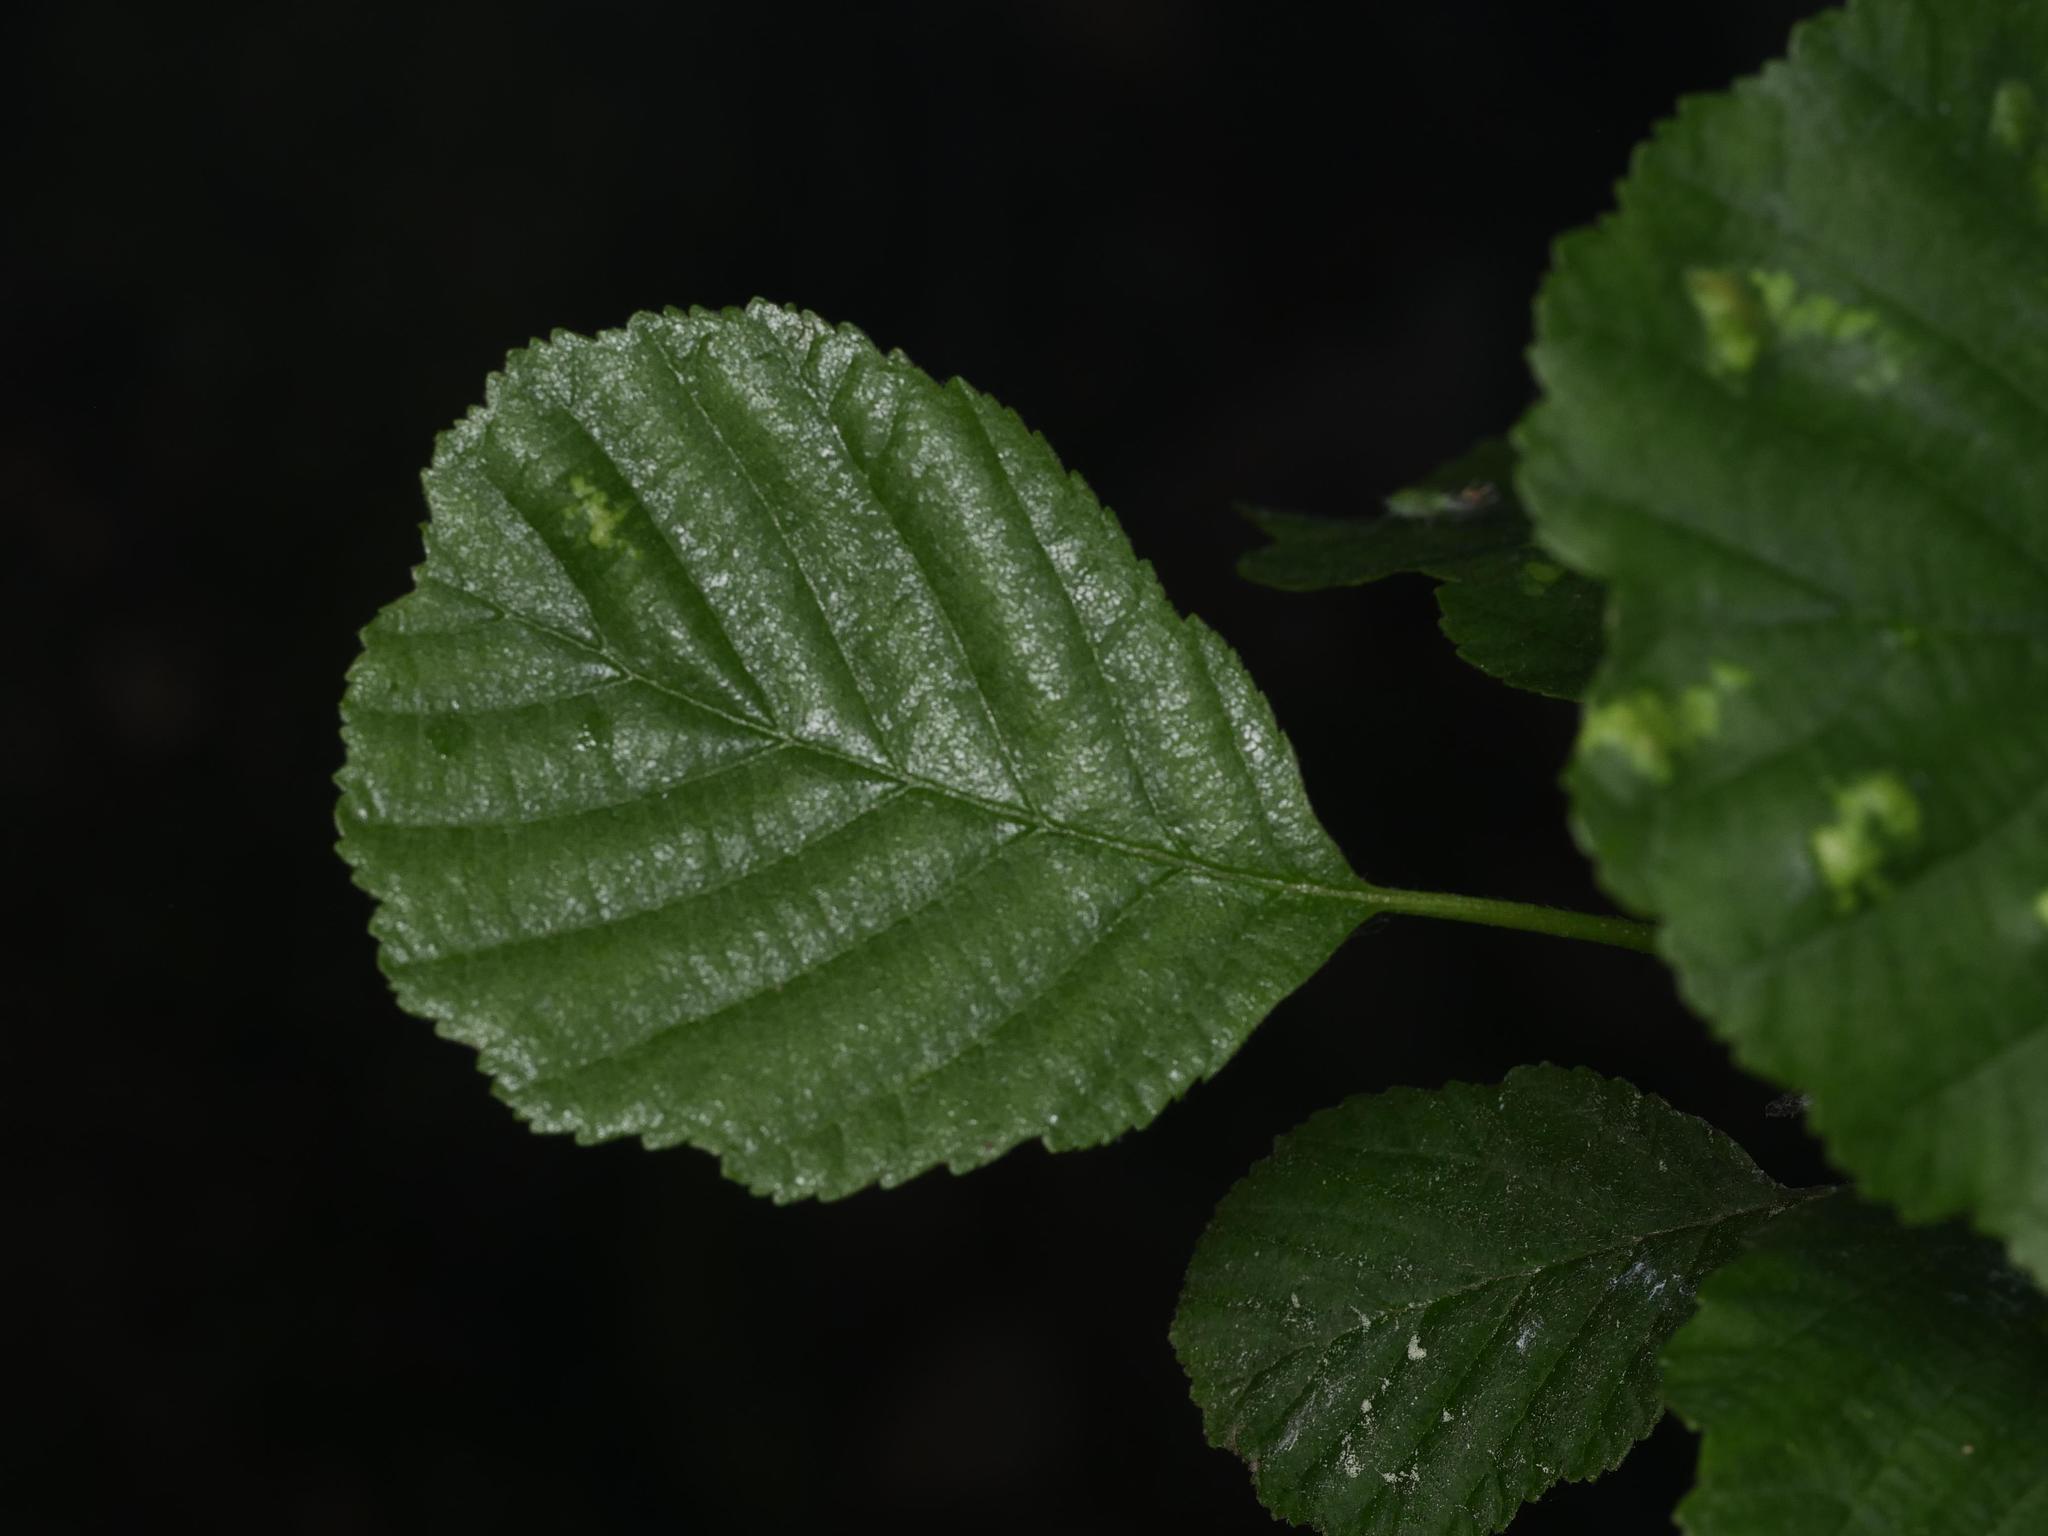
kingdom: Plantae
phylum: Tracheophyta
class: Magnoliopsida
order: Fagales
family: Betulaceae
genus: Alnus
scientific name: Alnus glutinosa
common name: Black alder
